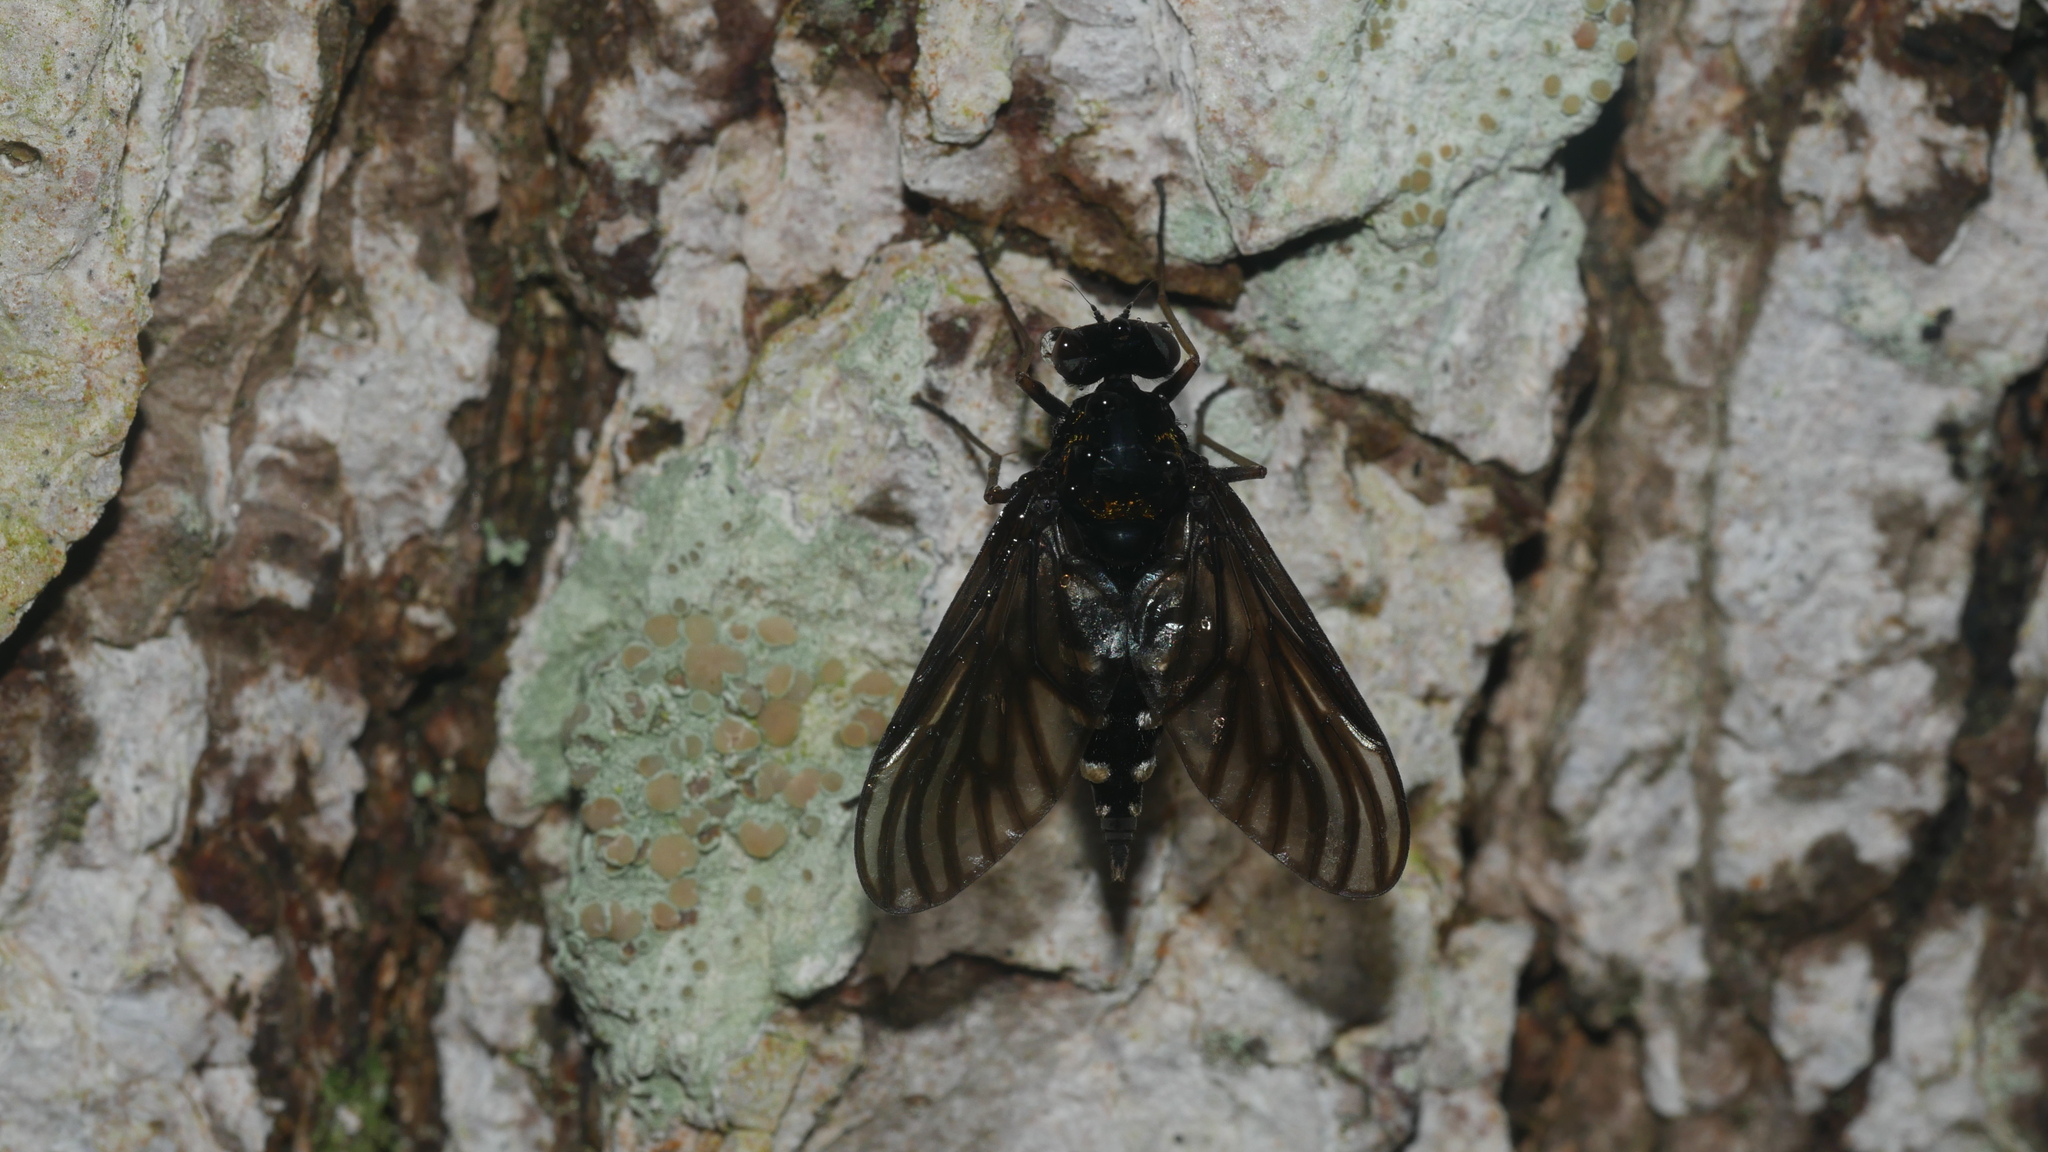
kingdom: Animalia
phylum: Arthropoda
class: Insecta
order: Diptera
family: Rhagionidae
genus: Chrysopilus
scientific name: Chrysopilus thoracicus
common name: Golden-backed snipe fly
